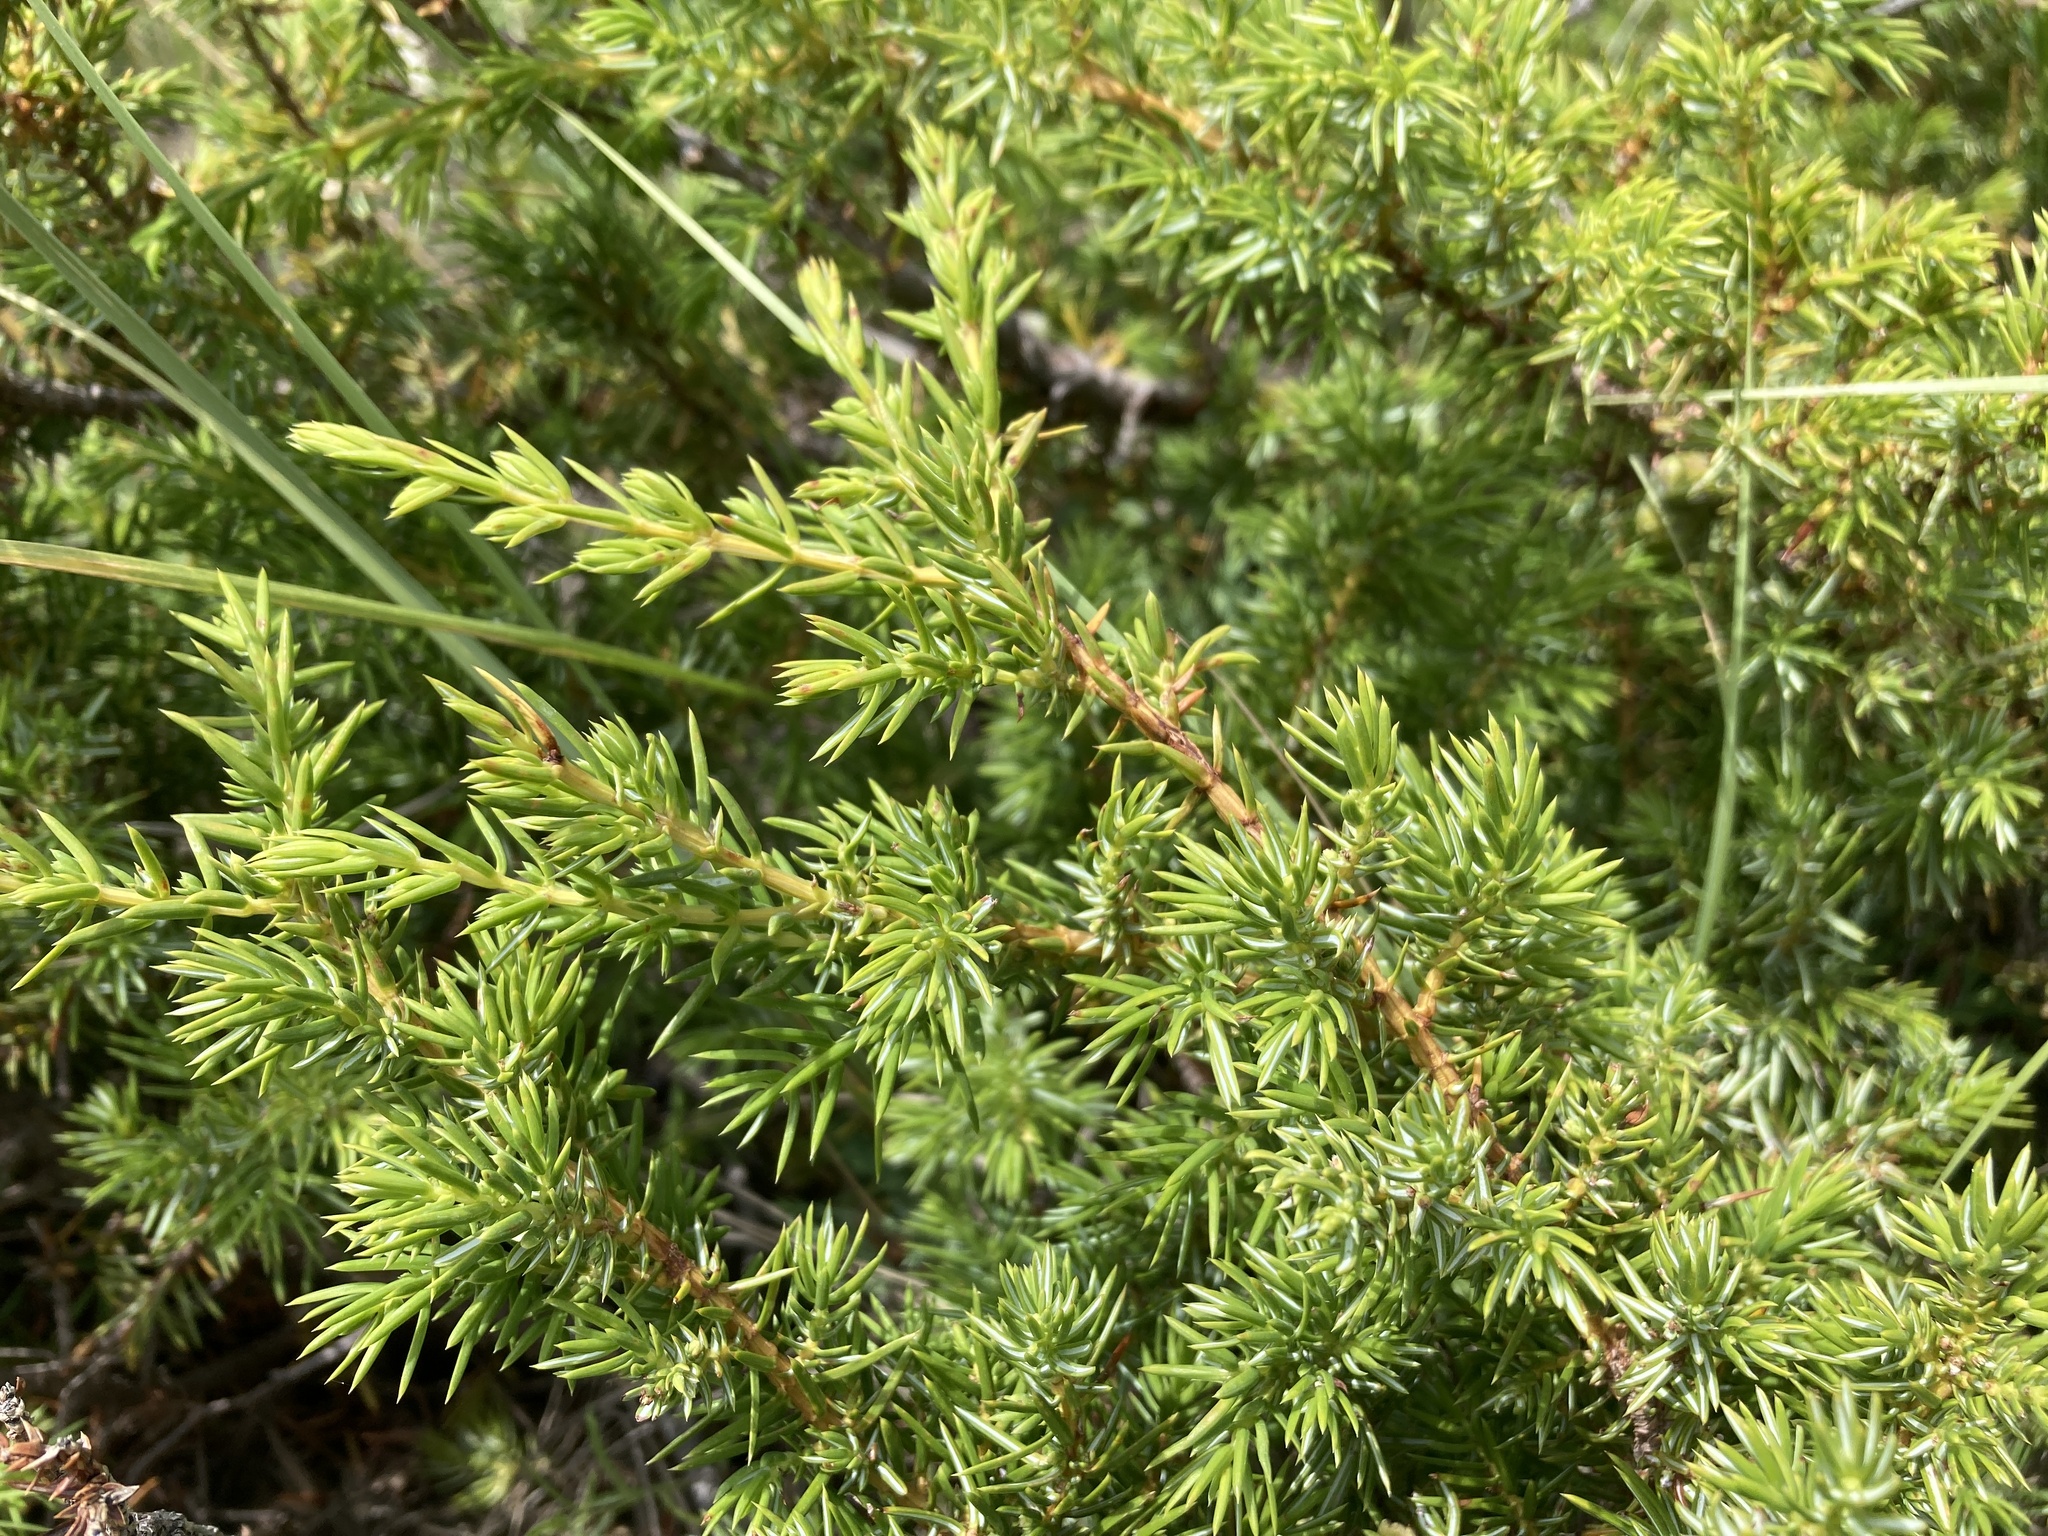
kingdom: Plantae
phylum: Tracheophyta
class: Pinopsida
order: Pinales
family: Cupressaceae
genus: Juniperus
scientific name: Juniperus communis
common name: Common juniper
